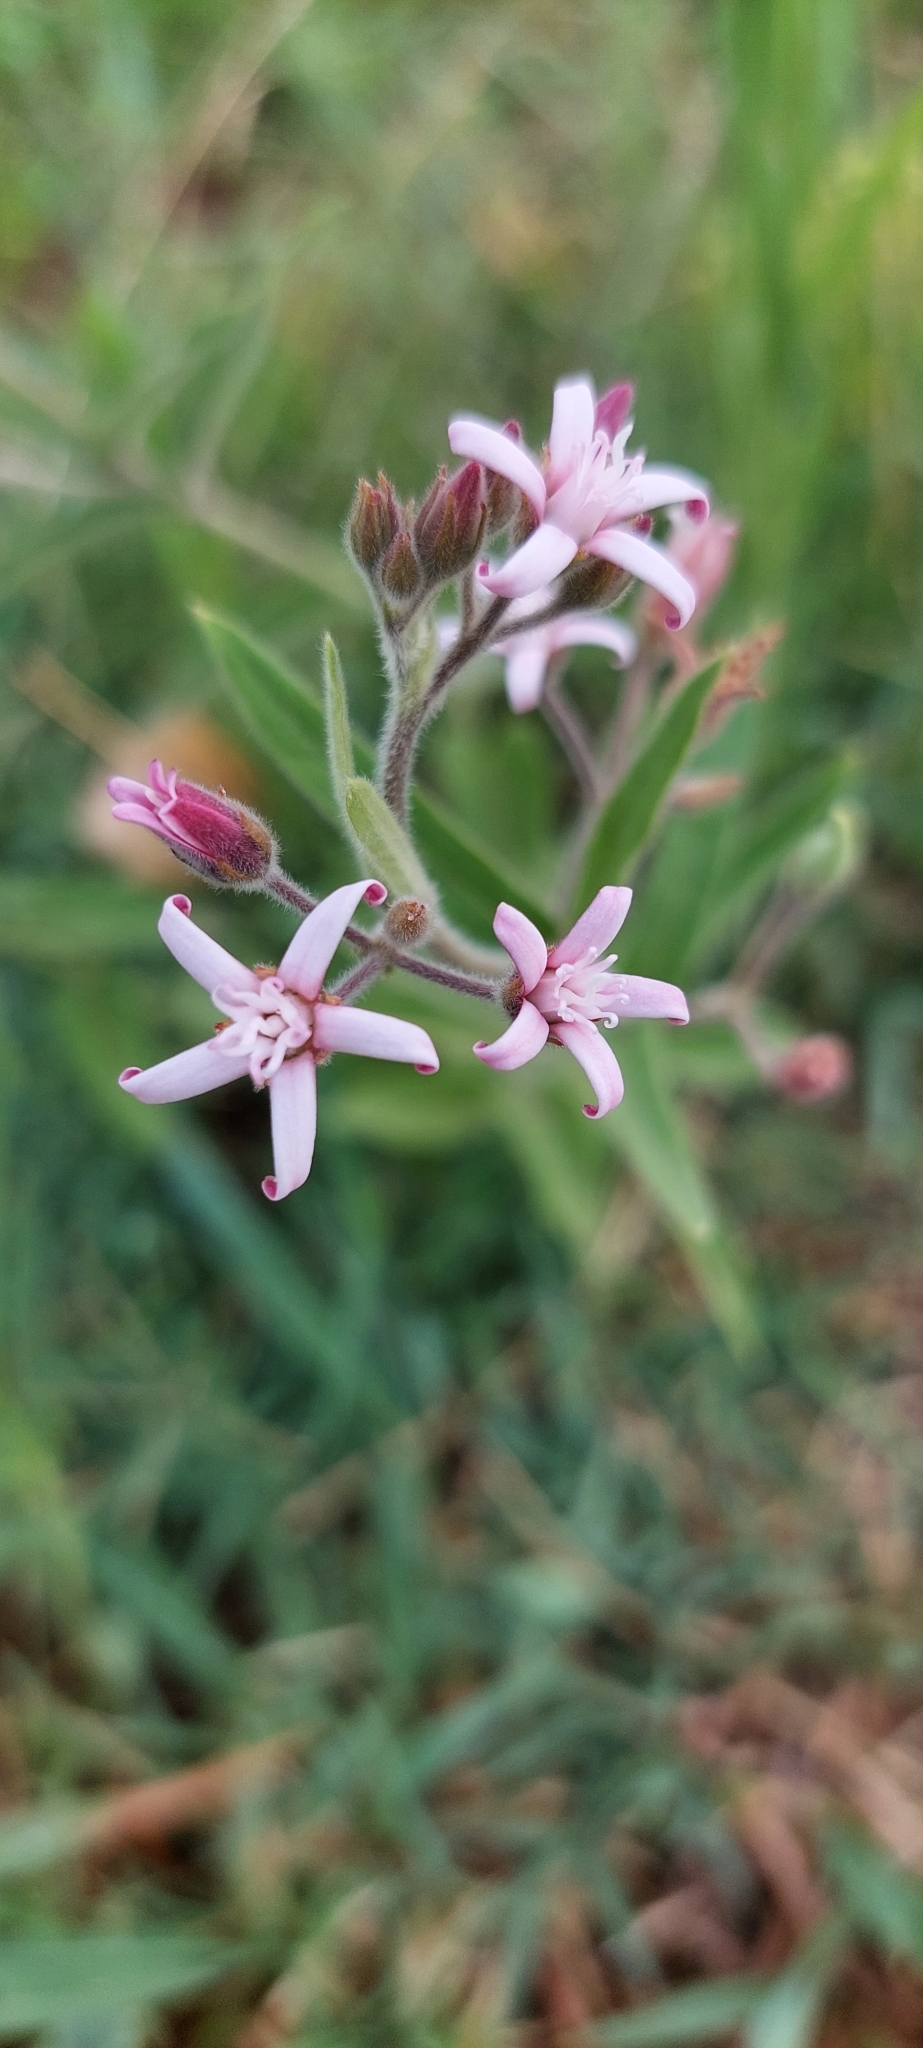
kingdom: Plantae
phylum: Tracheophyta
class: Magnoliopsida
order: Gentianales
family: Apocynaceae
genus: Oxypetalum
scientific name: Oxypetalum solanoides
